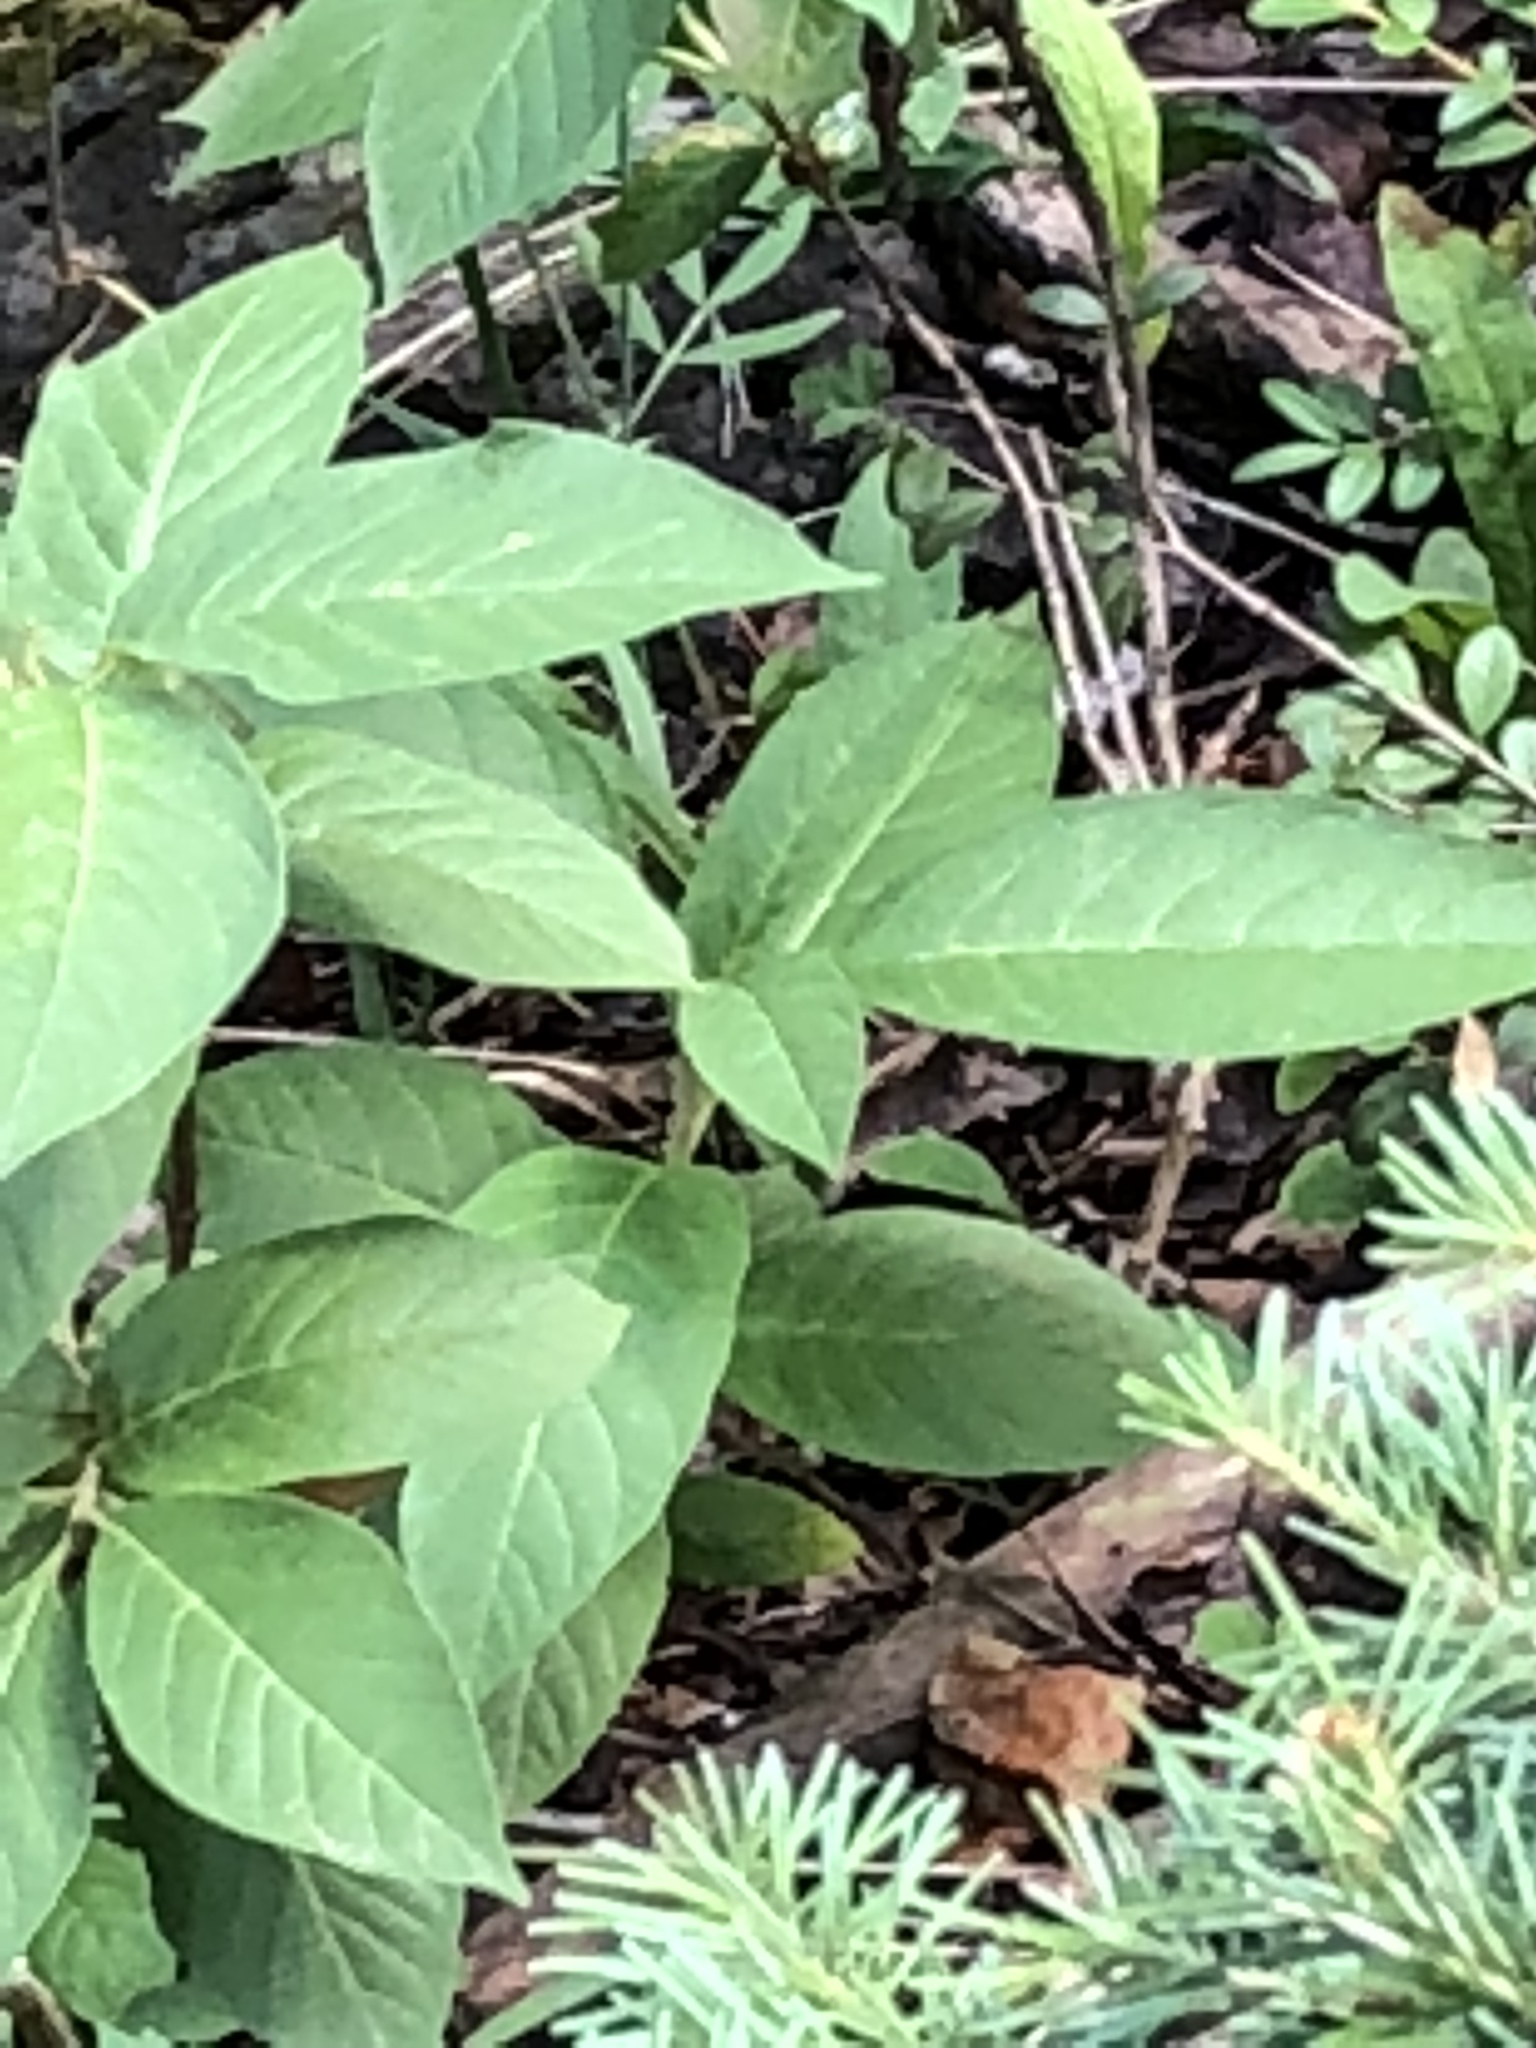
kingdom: Plantae
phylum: Tracheophyta
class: Magnoliopsida
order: Dipsacales
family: Caprifoliaceae
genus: Lonicera
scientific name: Lonicera involucrata
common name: Californian honeysuckle
